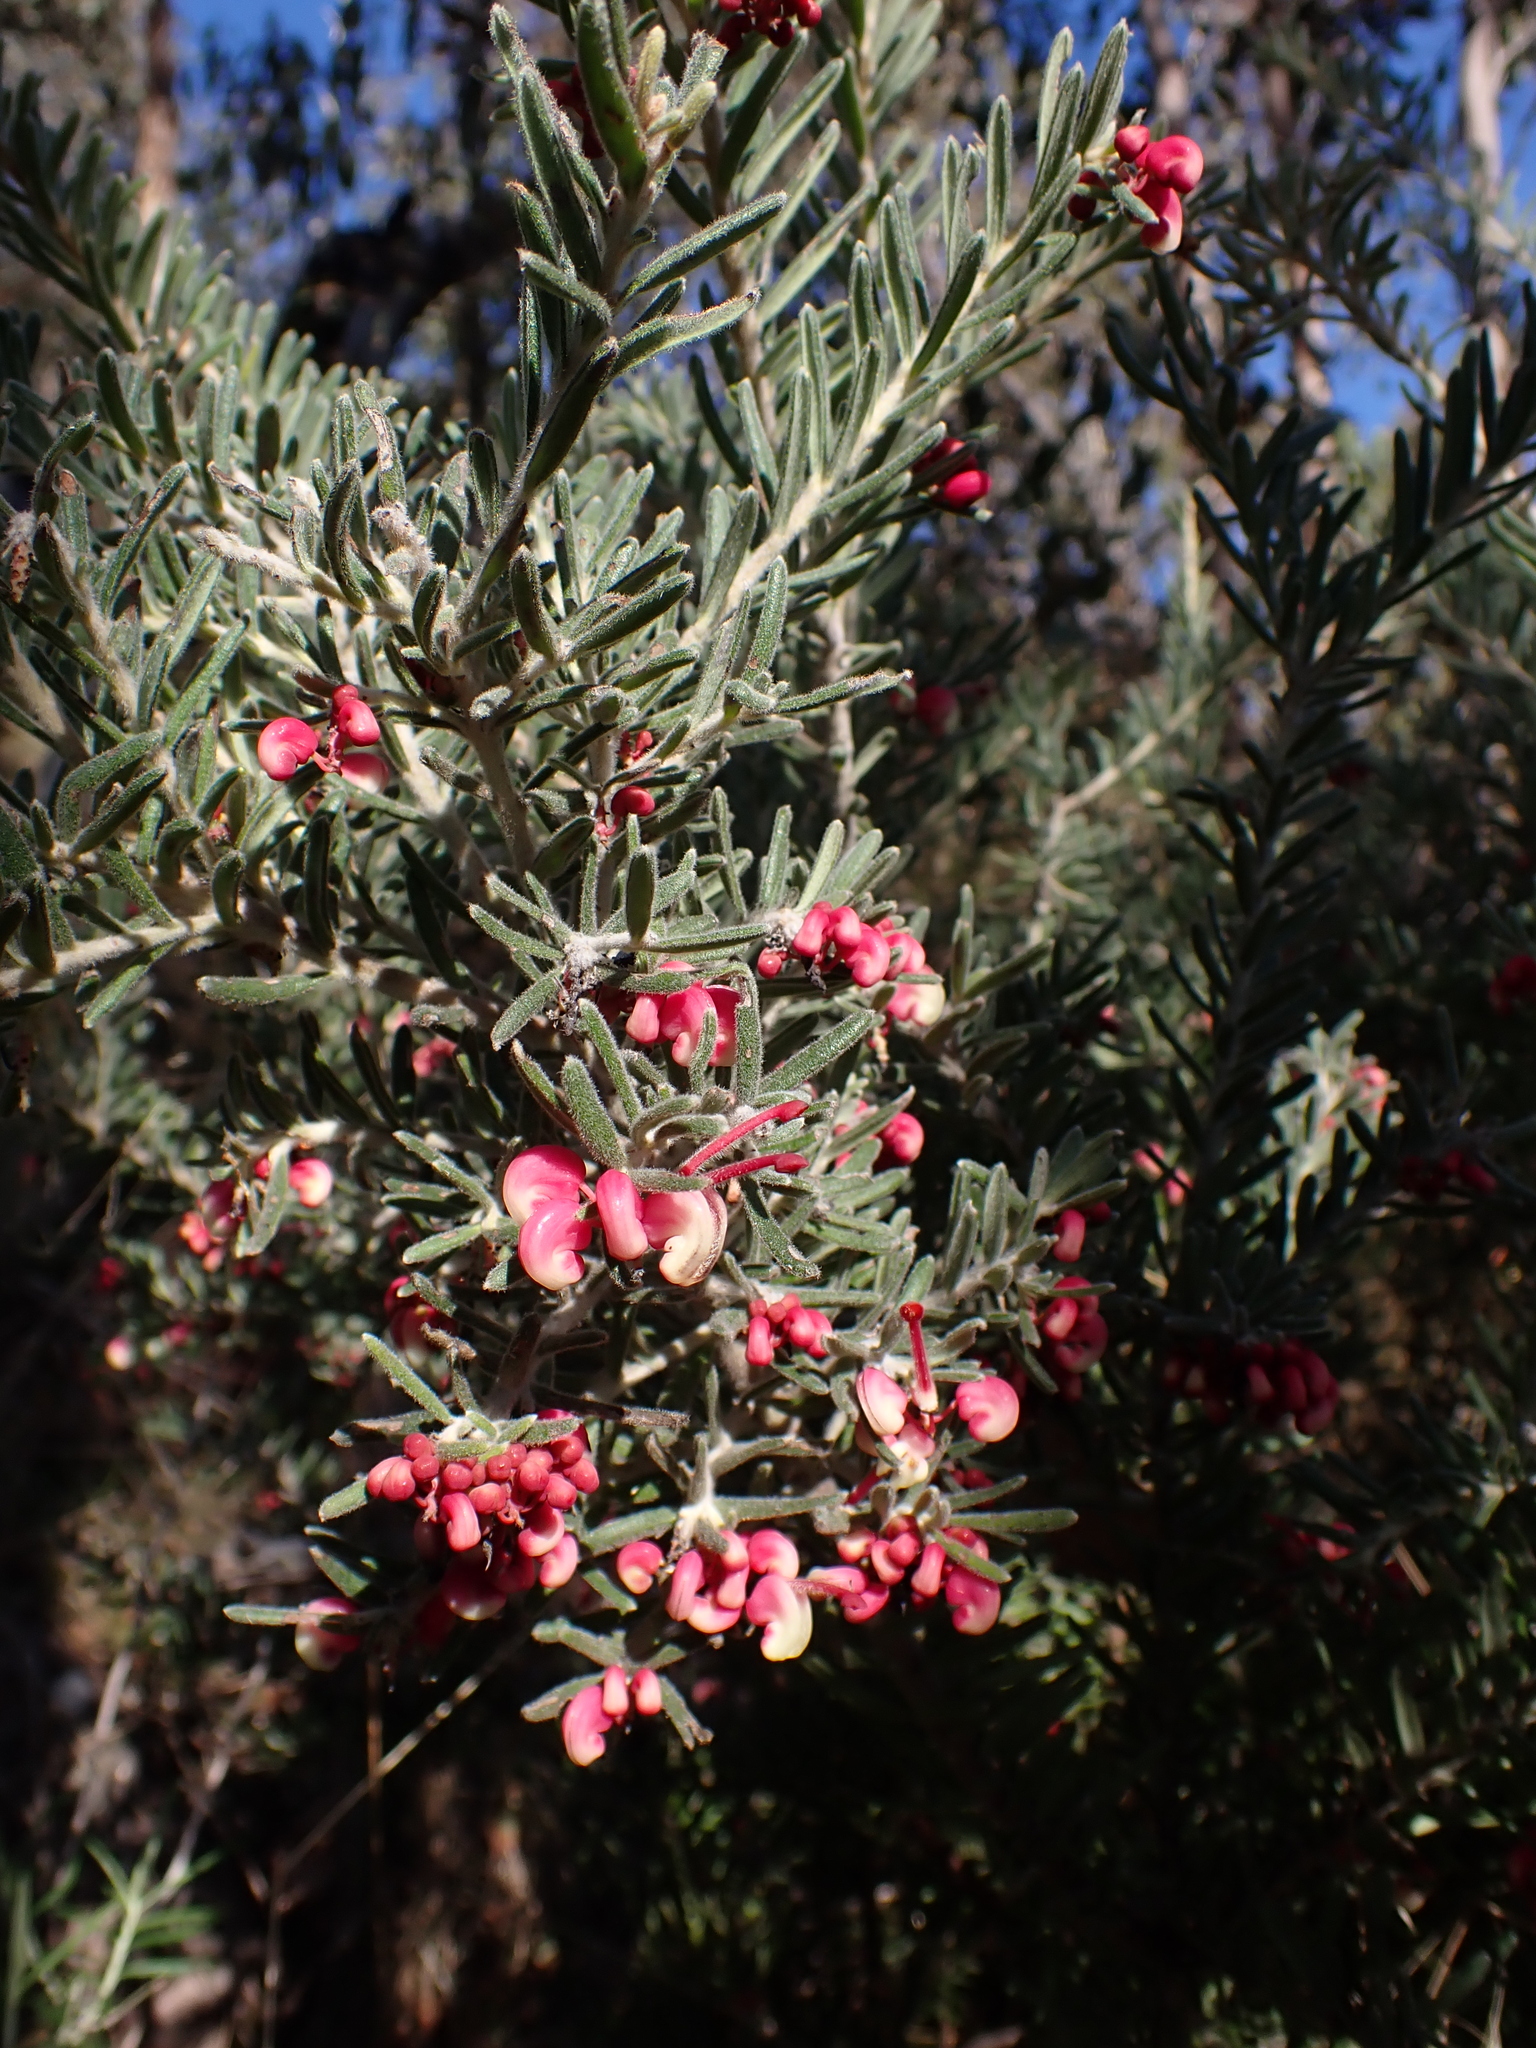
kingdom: Plantae
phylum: Tracheophyta
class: Magnoliopsida
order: Proteales
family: Proteaceae
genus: Grevillea
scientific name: Grevillea lanigera
